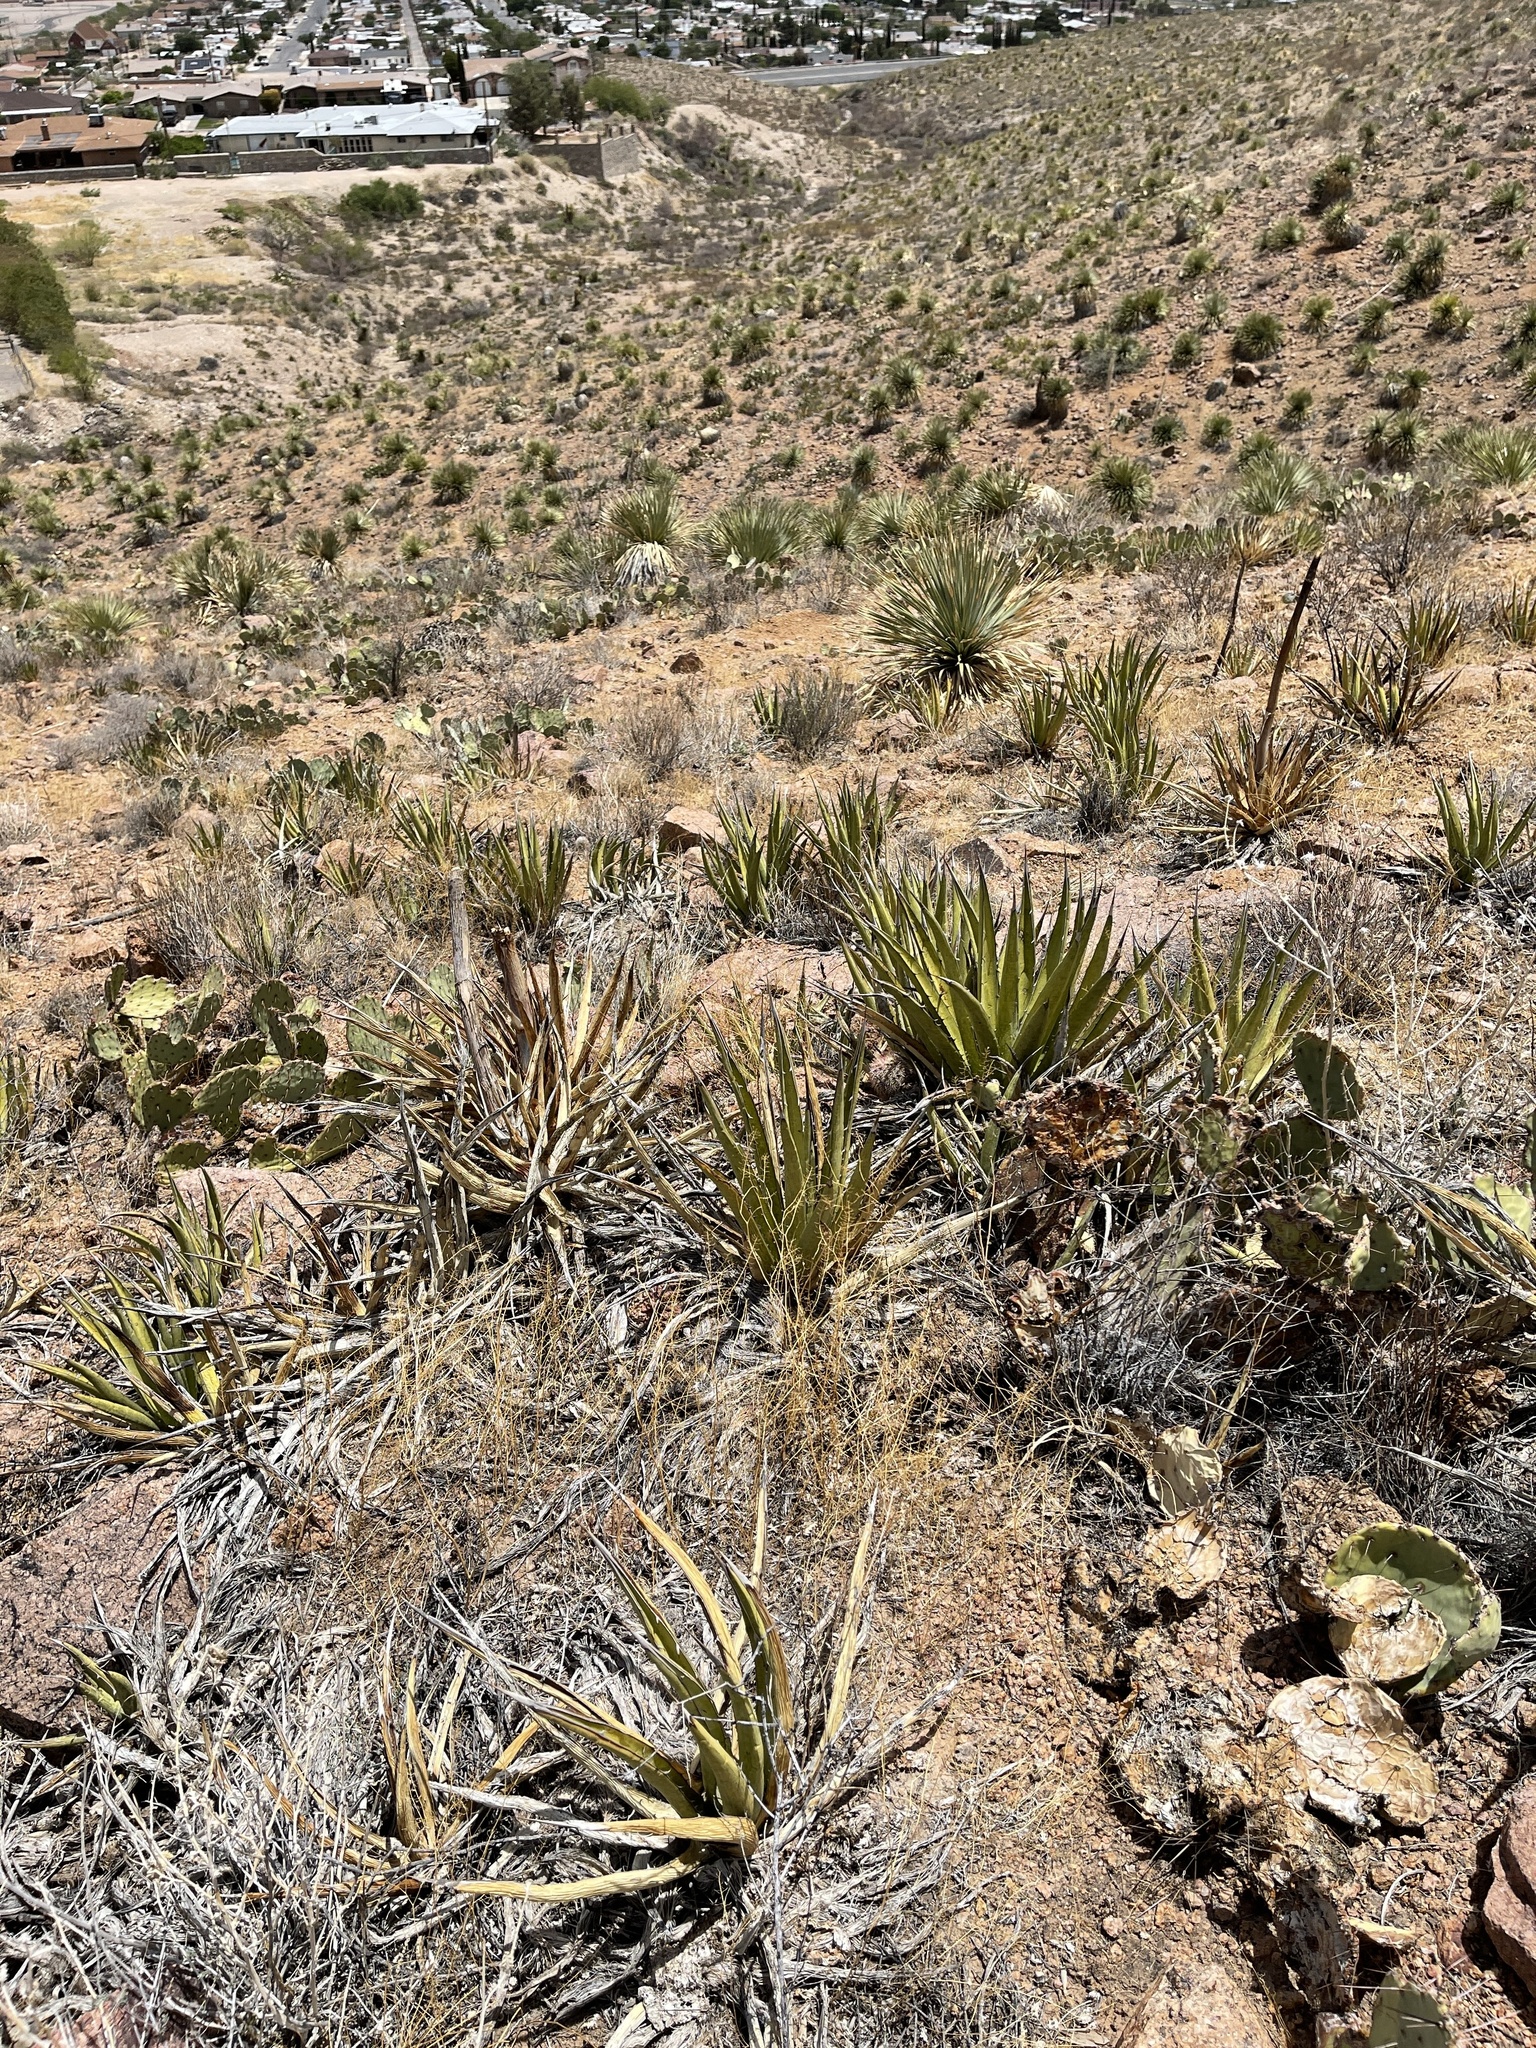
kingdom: Plantae
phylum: Tracheophyta
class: Liliopsida
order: Asparagales
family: Asparagaceae
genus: Agave
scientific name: Agave lechuguilla
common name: Lecheguilla agave
